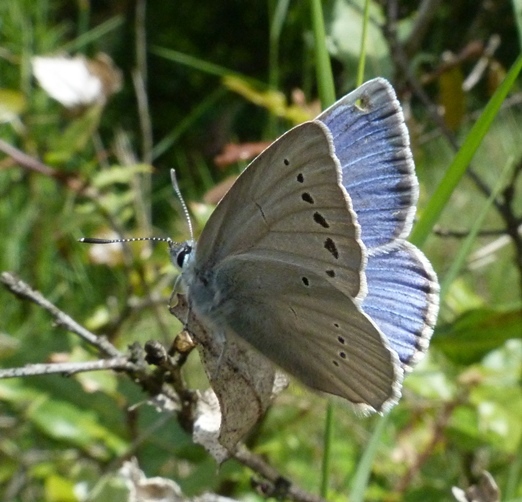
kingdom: Animalia
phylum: Arthropoda
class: Insecta
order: Lepidoptera
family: Lycaenidae
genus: Iolana
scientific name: Iolana debilitata
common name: Iolas blue
